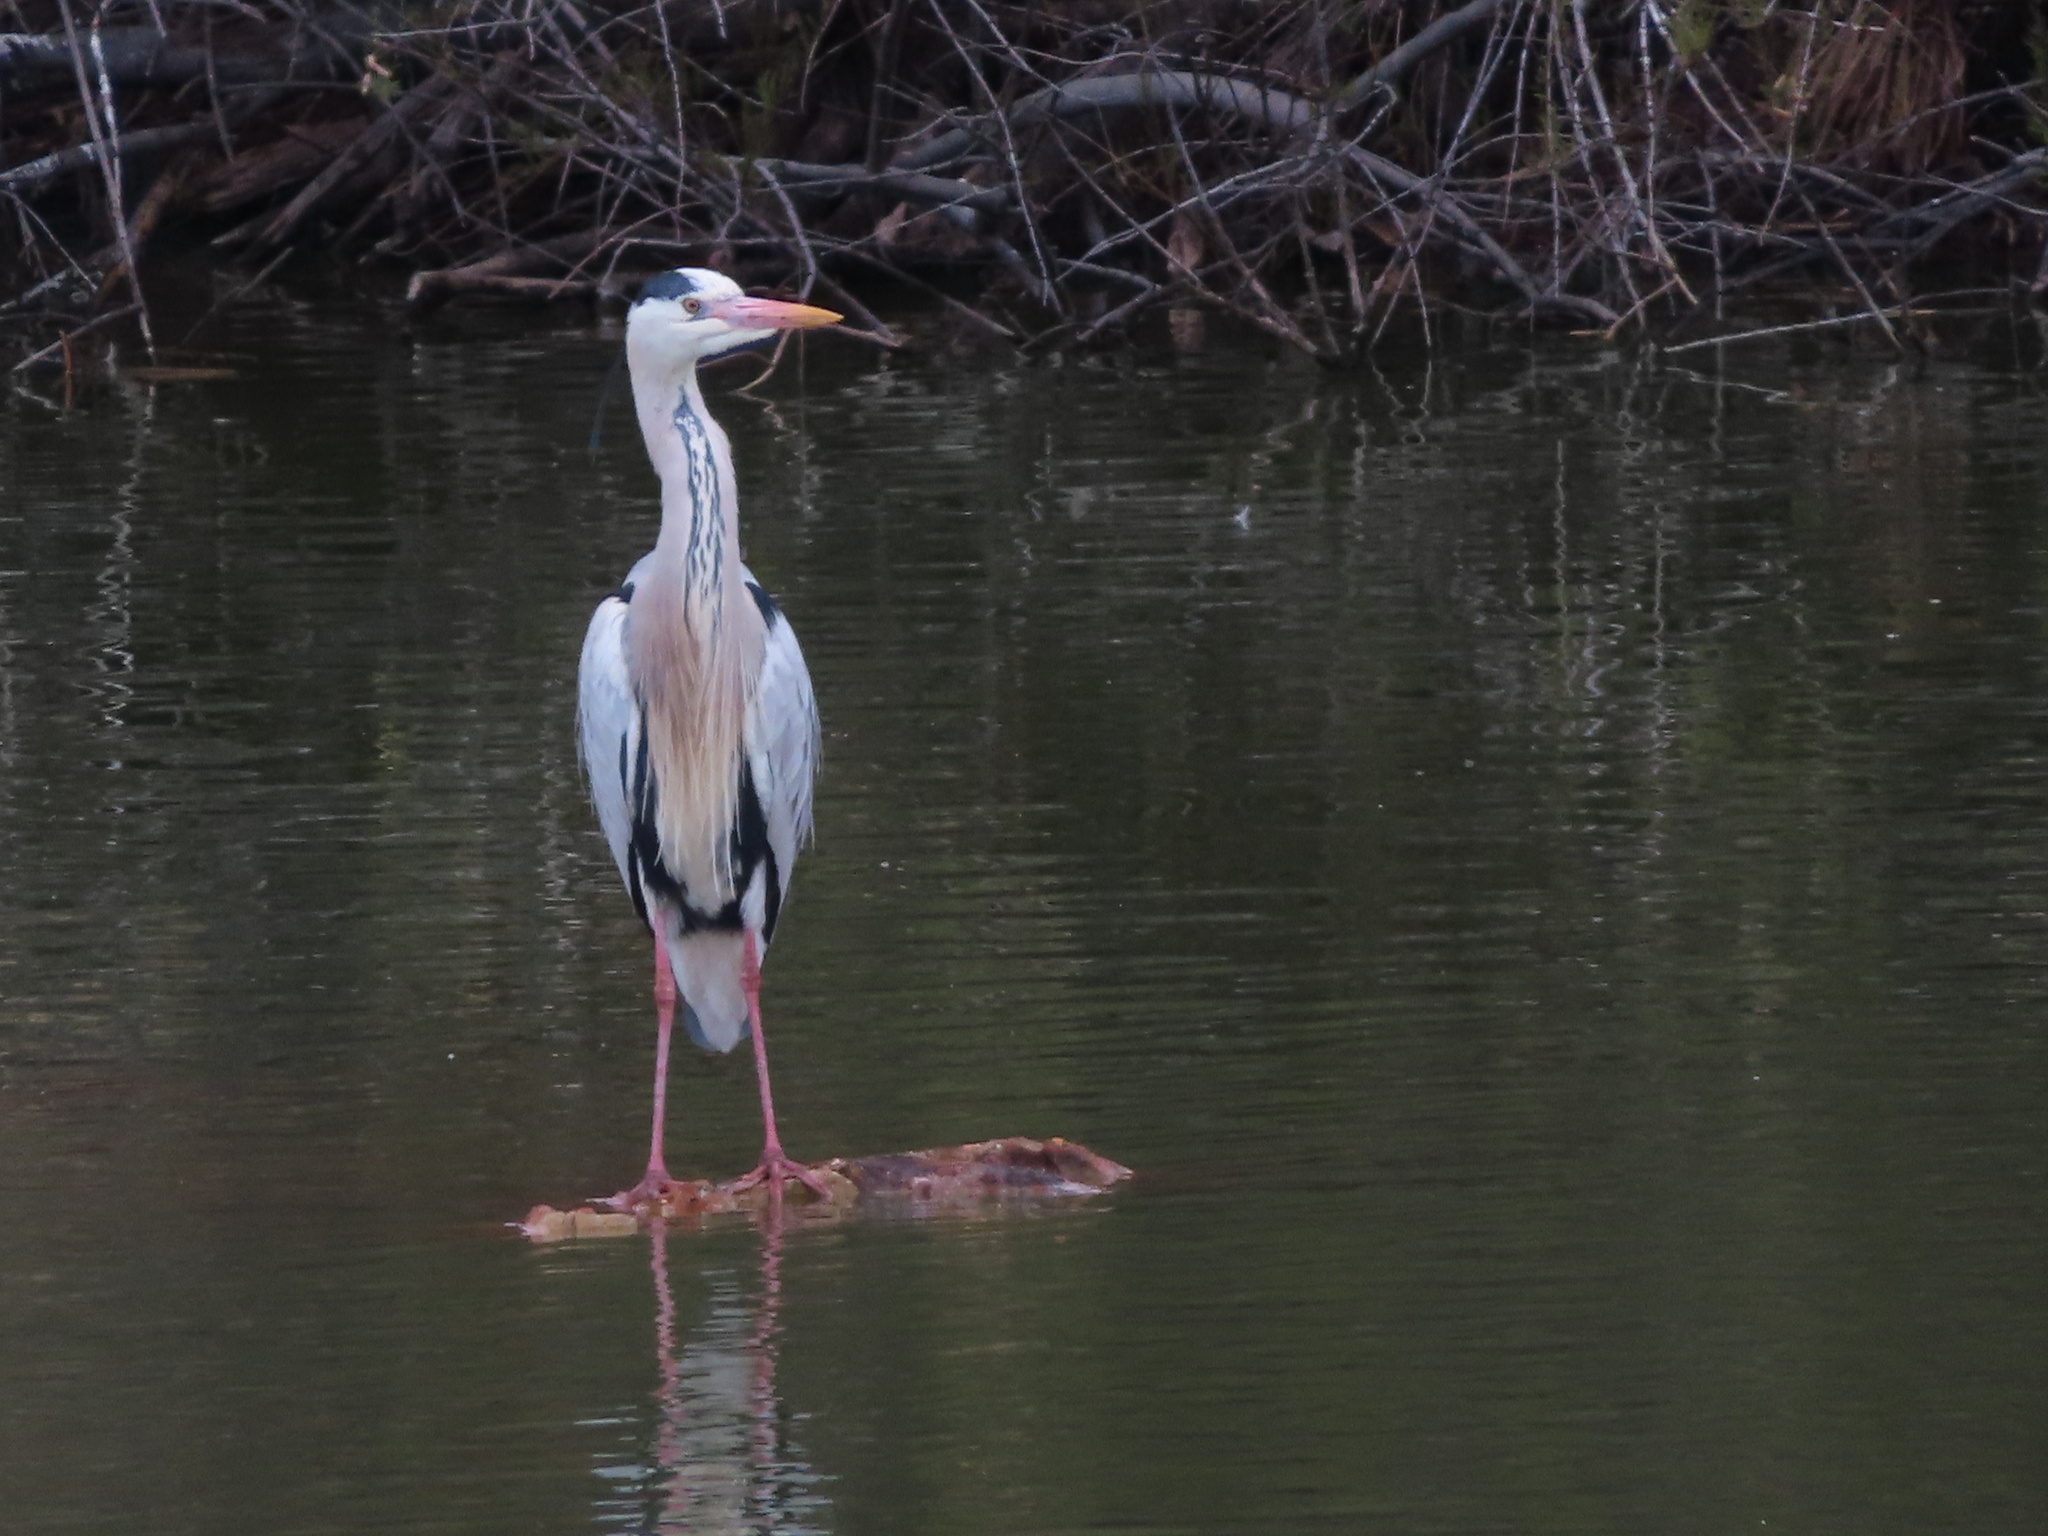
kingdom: Animalia
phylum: Chordata
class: Aves
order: Pelecaniformes
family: Ardeidae
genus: Ardea
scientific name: Ardea cinerea
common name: Grey heron
